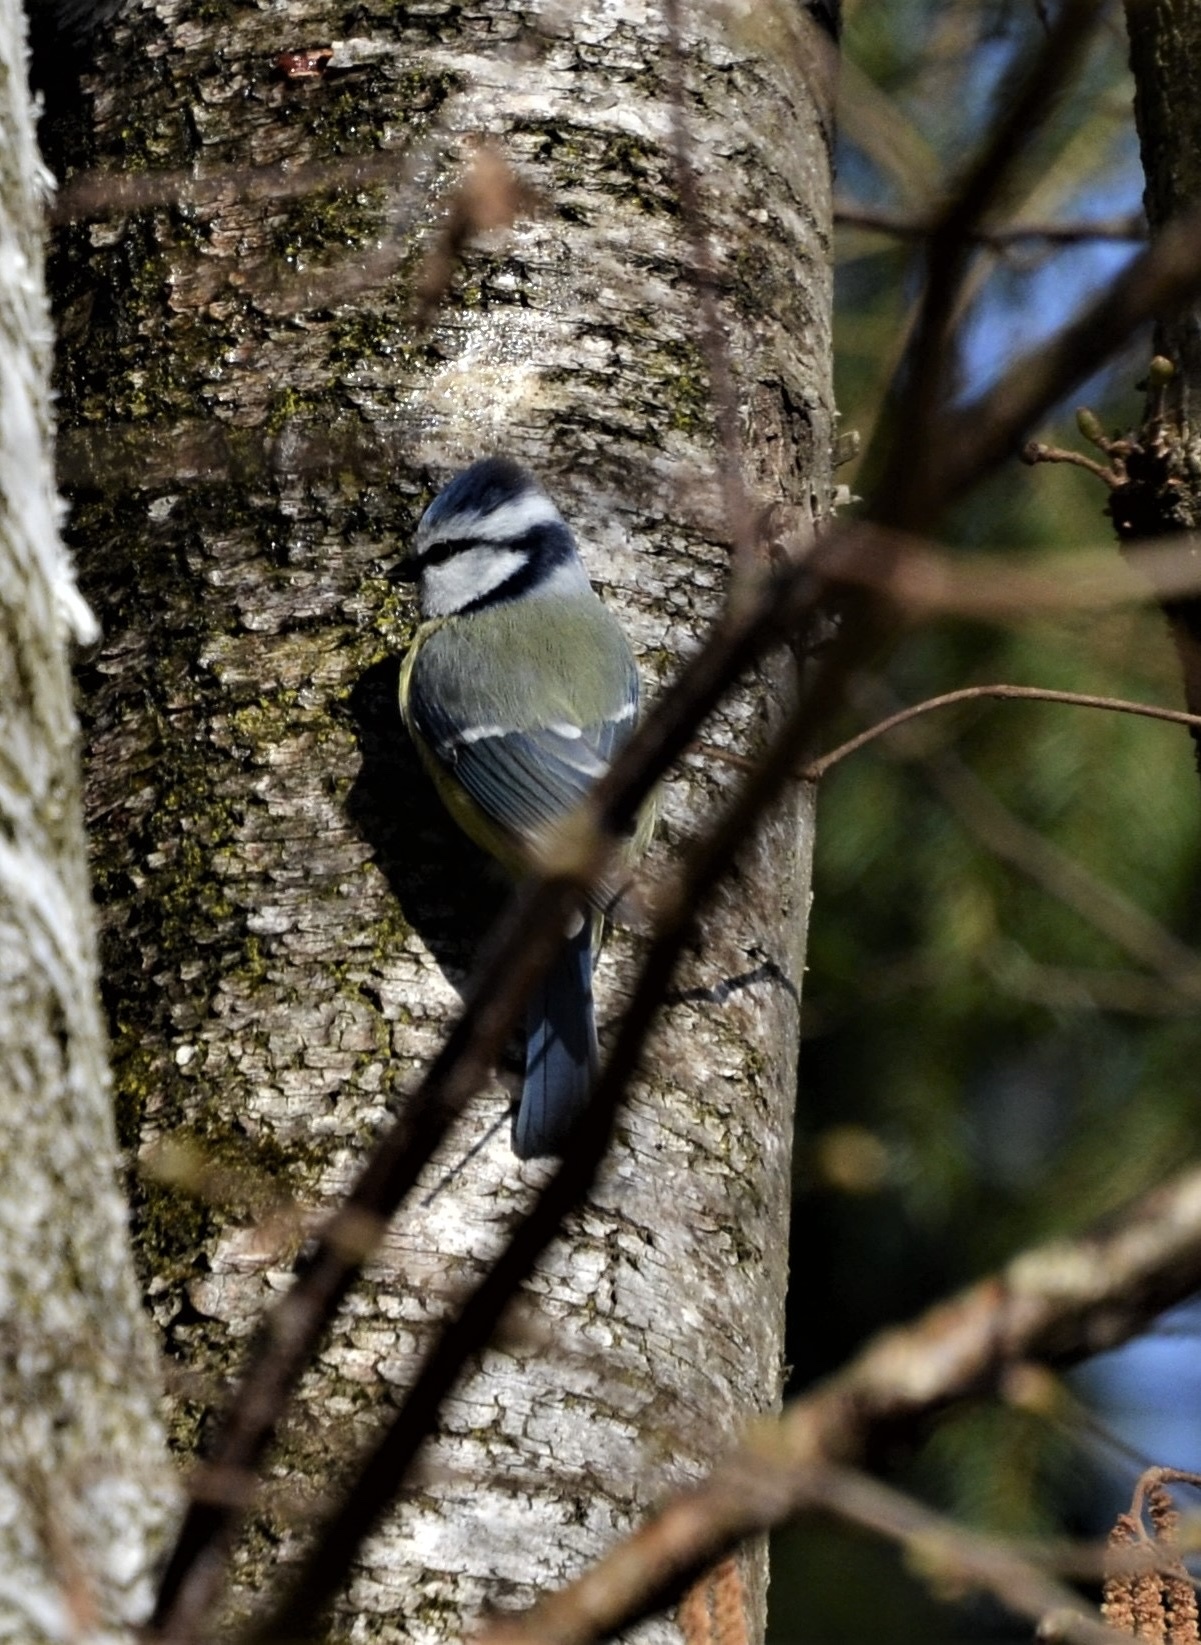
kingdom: Animalia
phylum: Chordata
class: Aves
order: Passeriformes
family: Paridae
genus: Cyanistes
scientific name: Cyanistes caeruleus
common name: Eurasian blue tit
